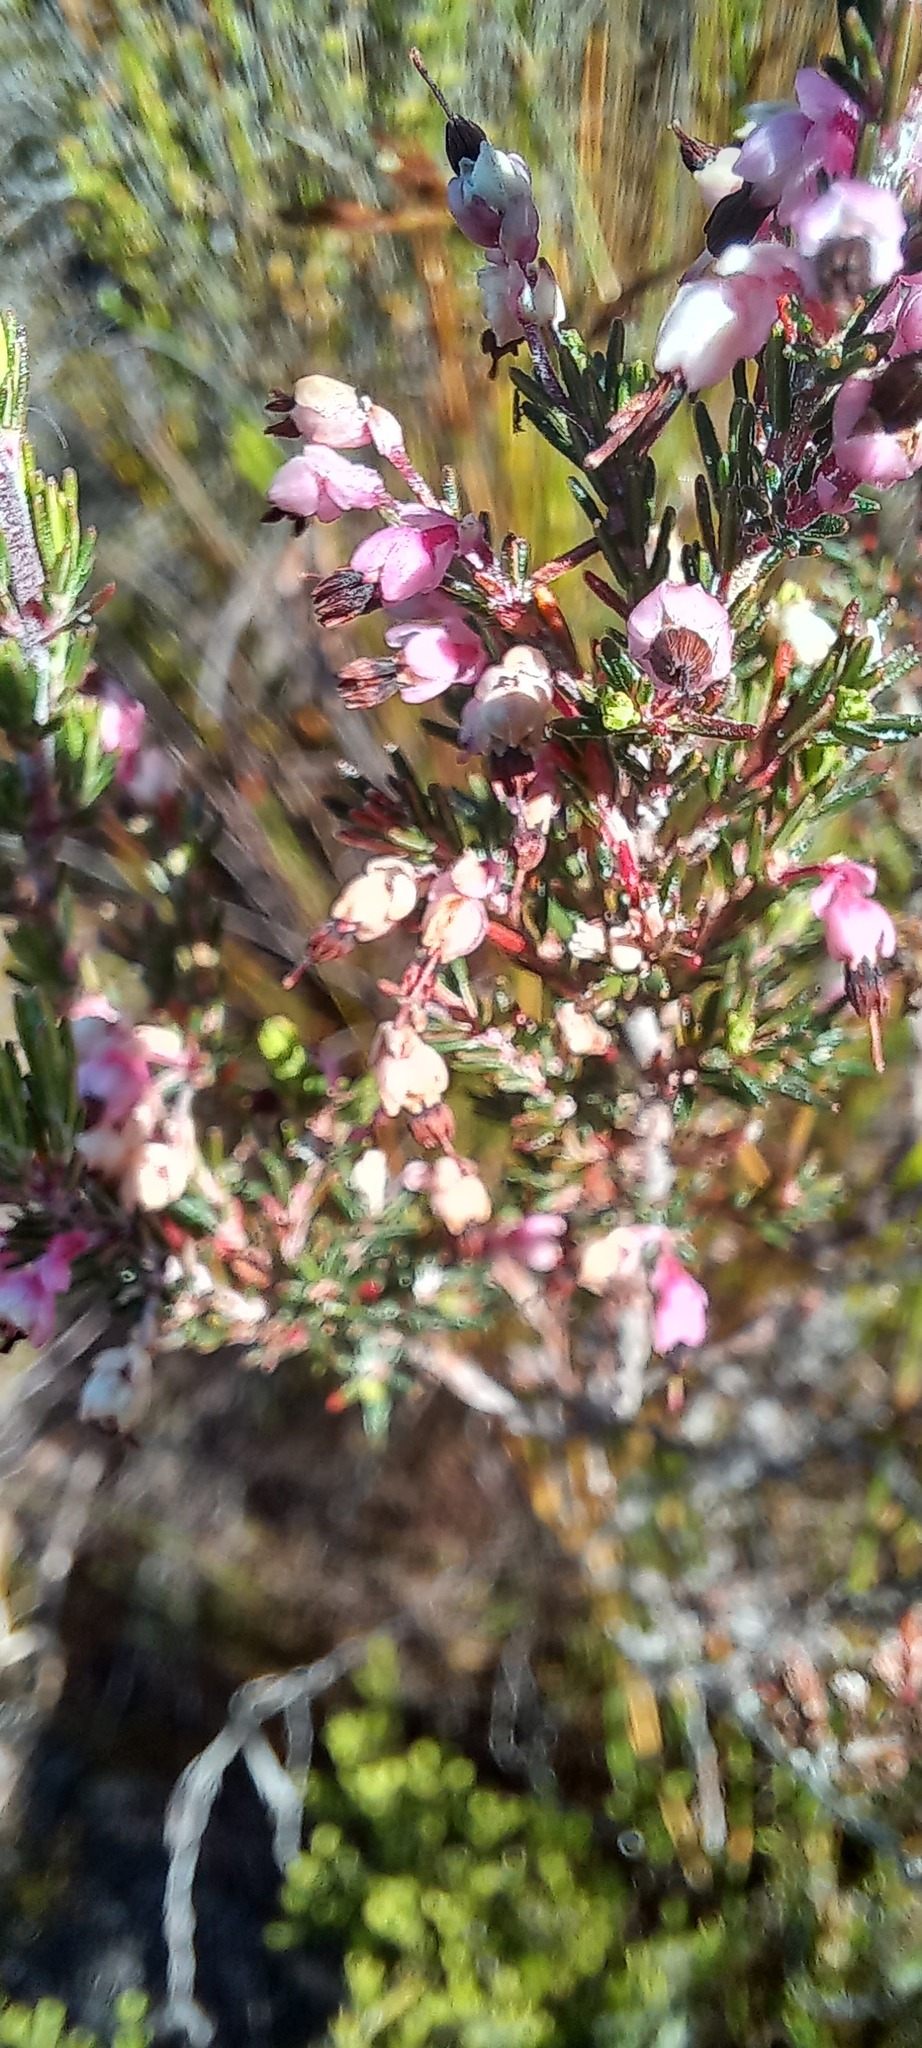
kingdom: Plantae
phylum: Tracheophyta
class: Magnoliopsida
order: Ericales
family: Ericaceae
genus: Erica
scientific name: Erica placentiflora
